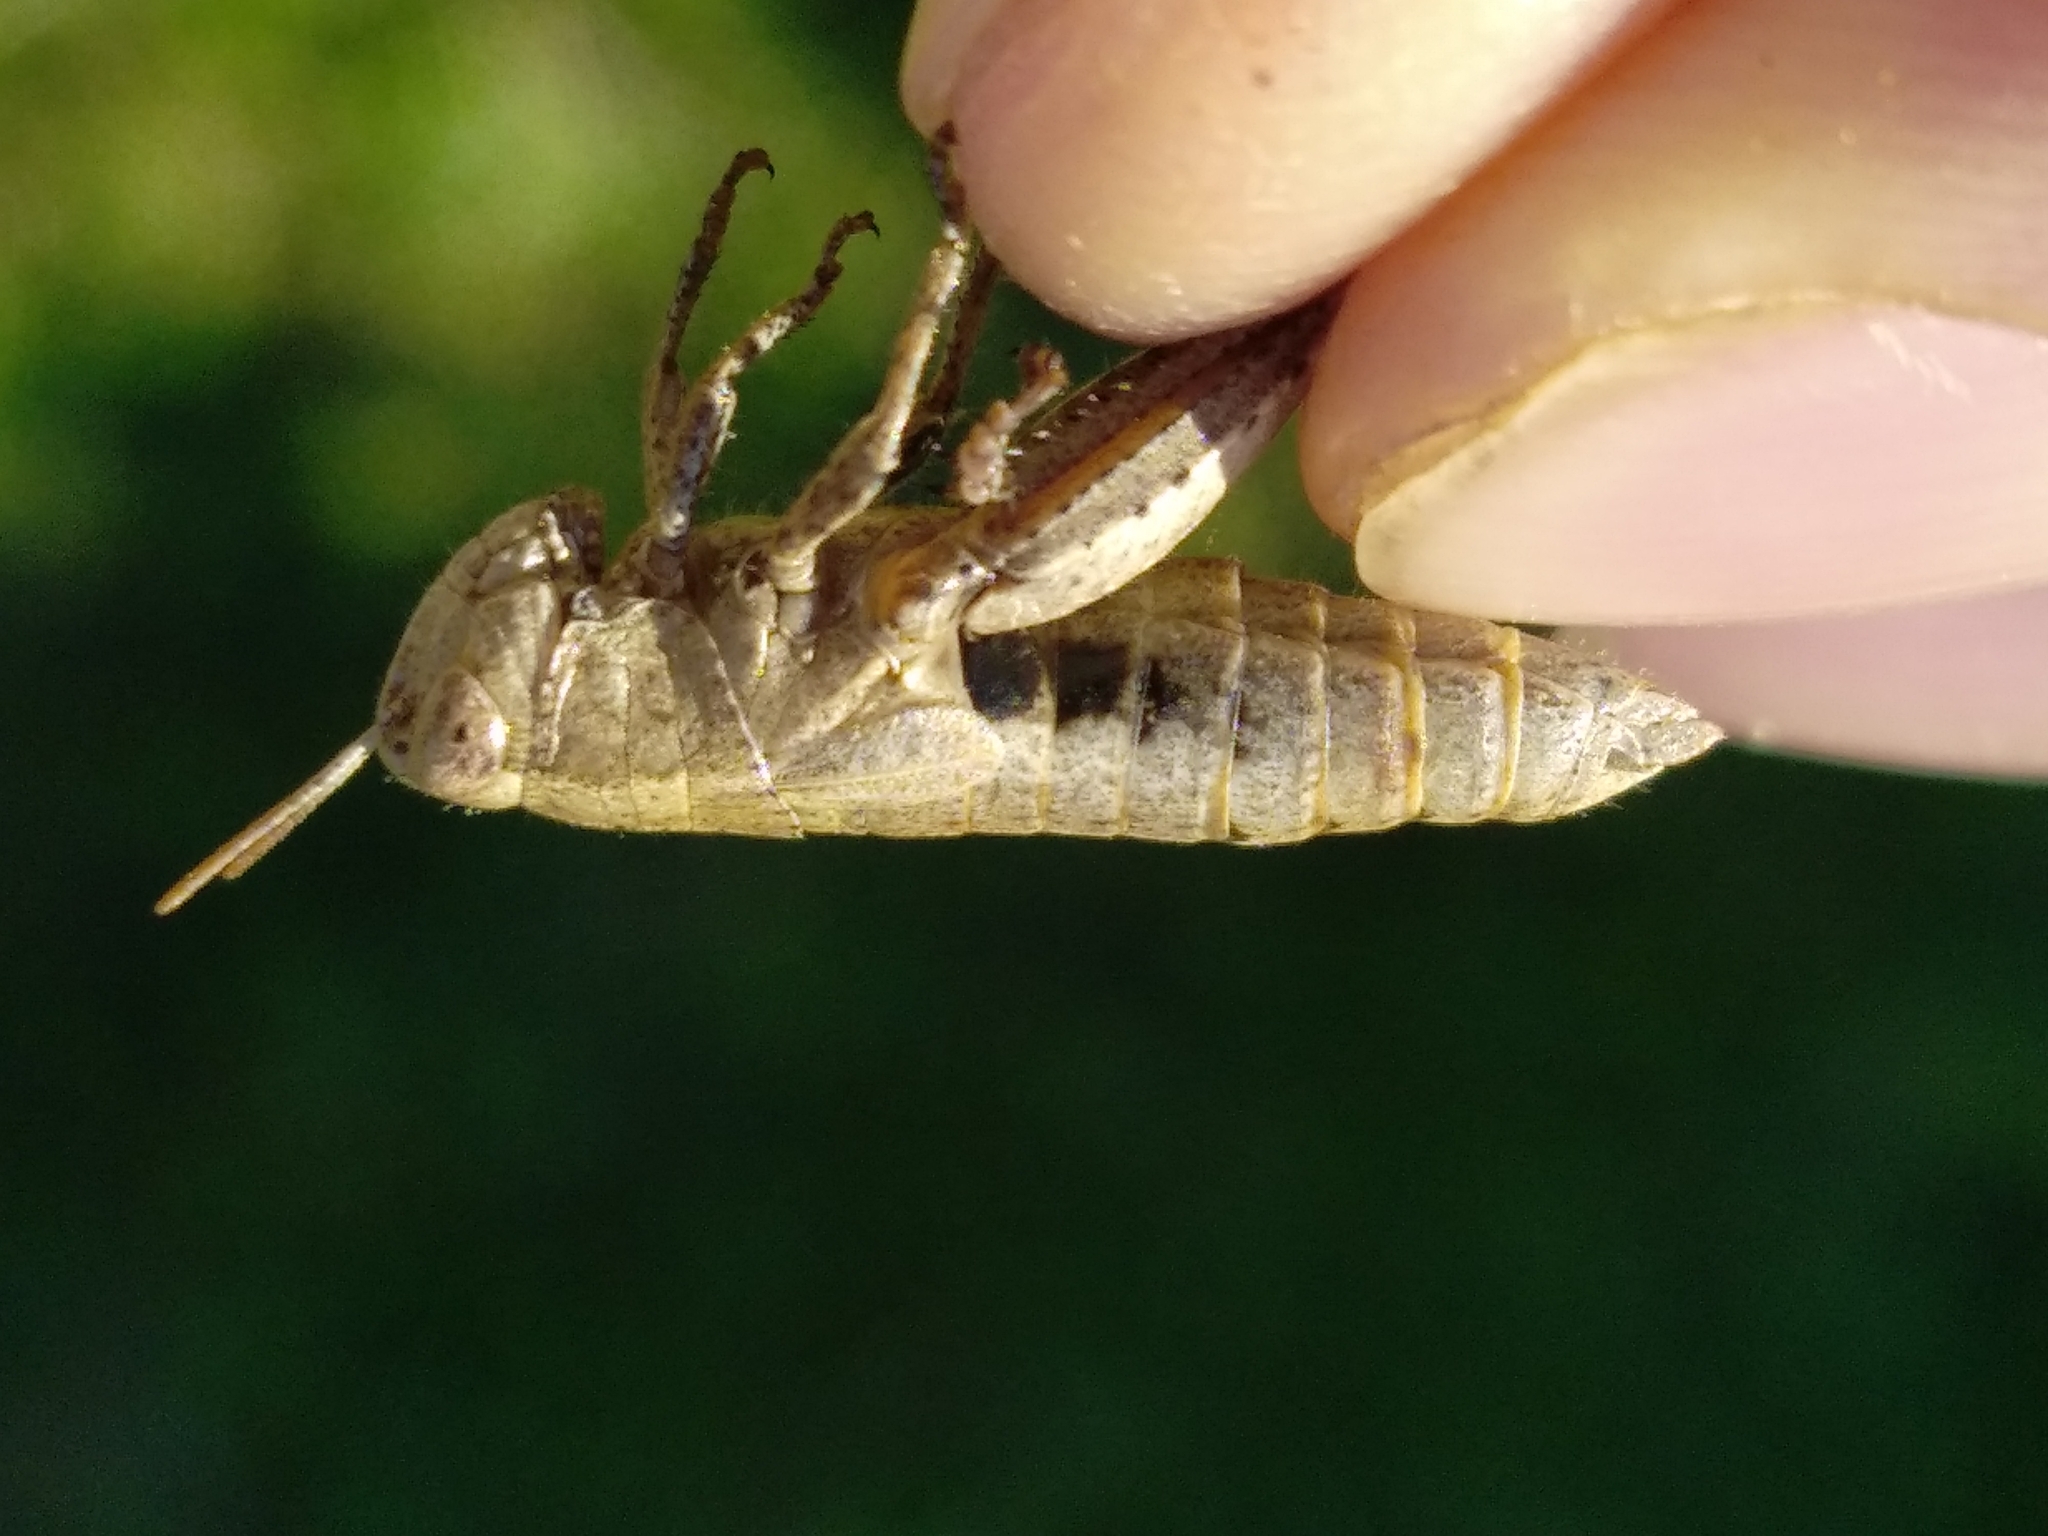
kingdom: Animalia
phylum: Arthropoda
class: Insecta
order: Orthoptera
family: Acrididae
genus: Pezotettix
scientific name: Pezotettix giornae
